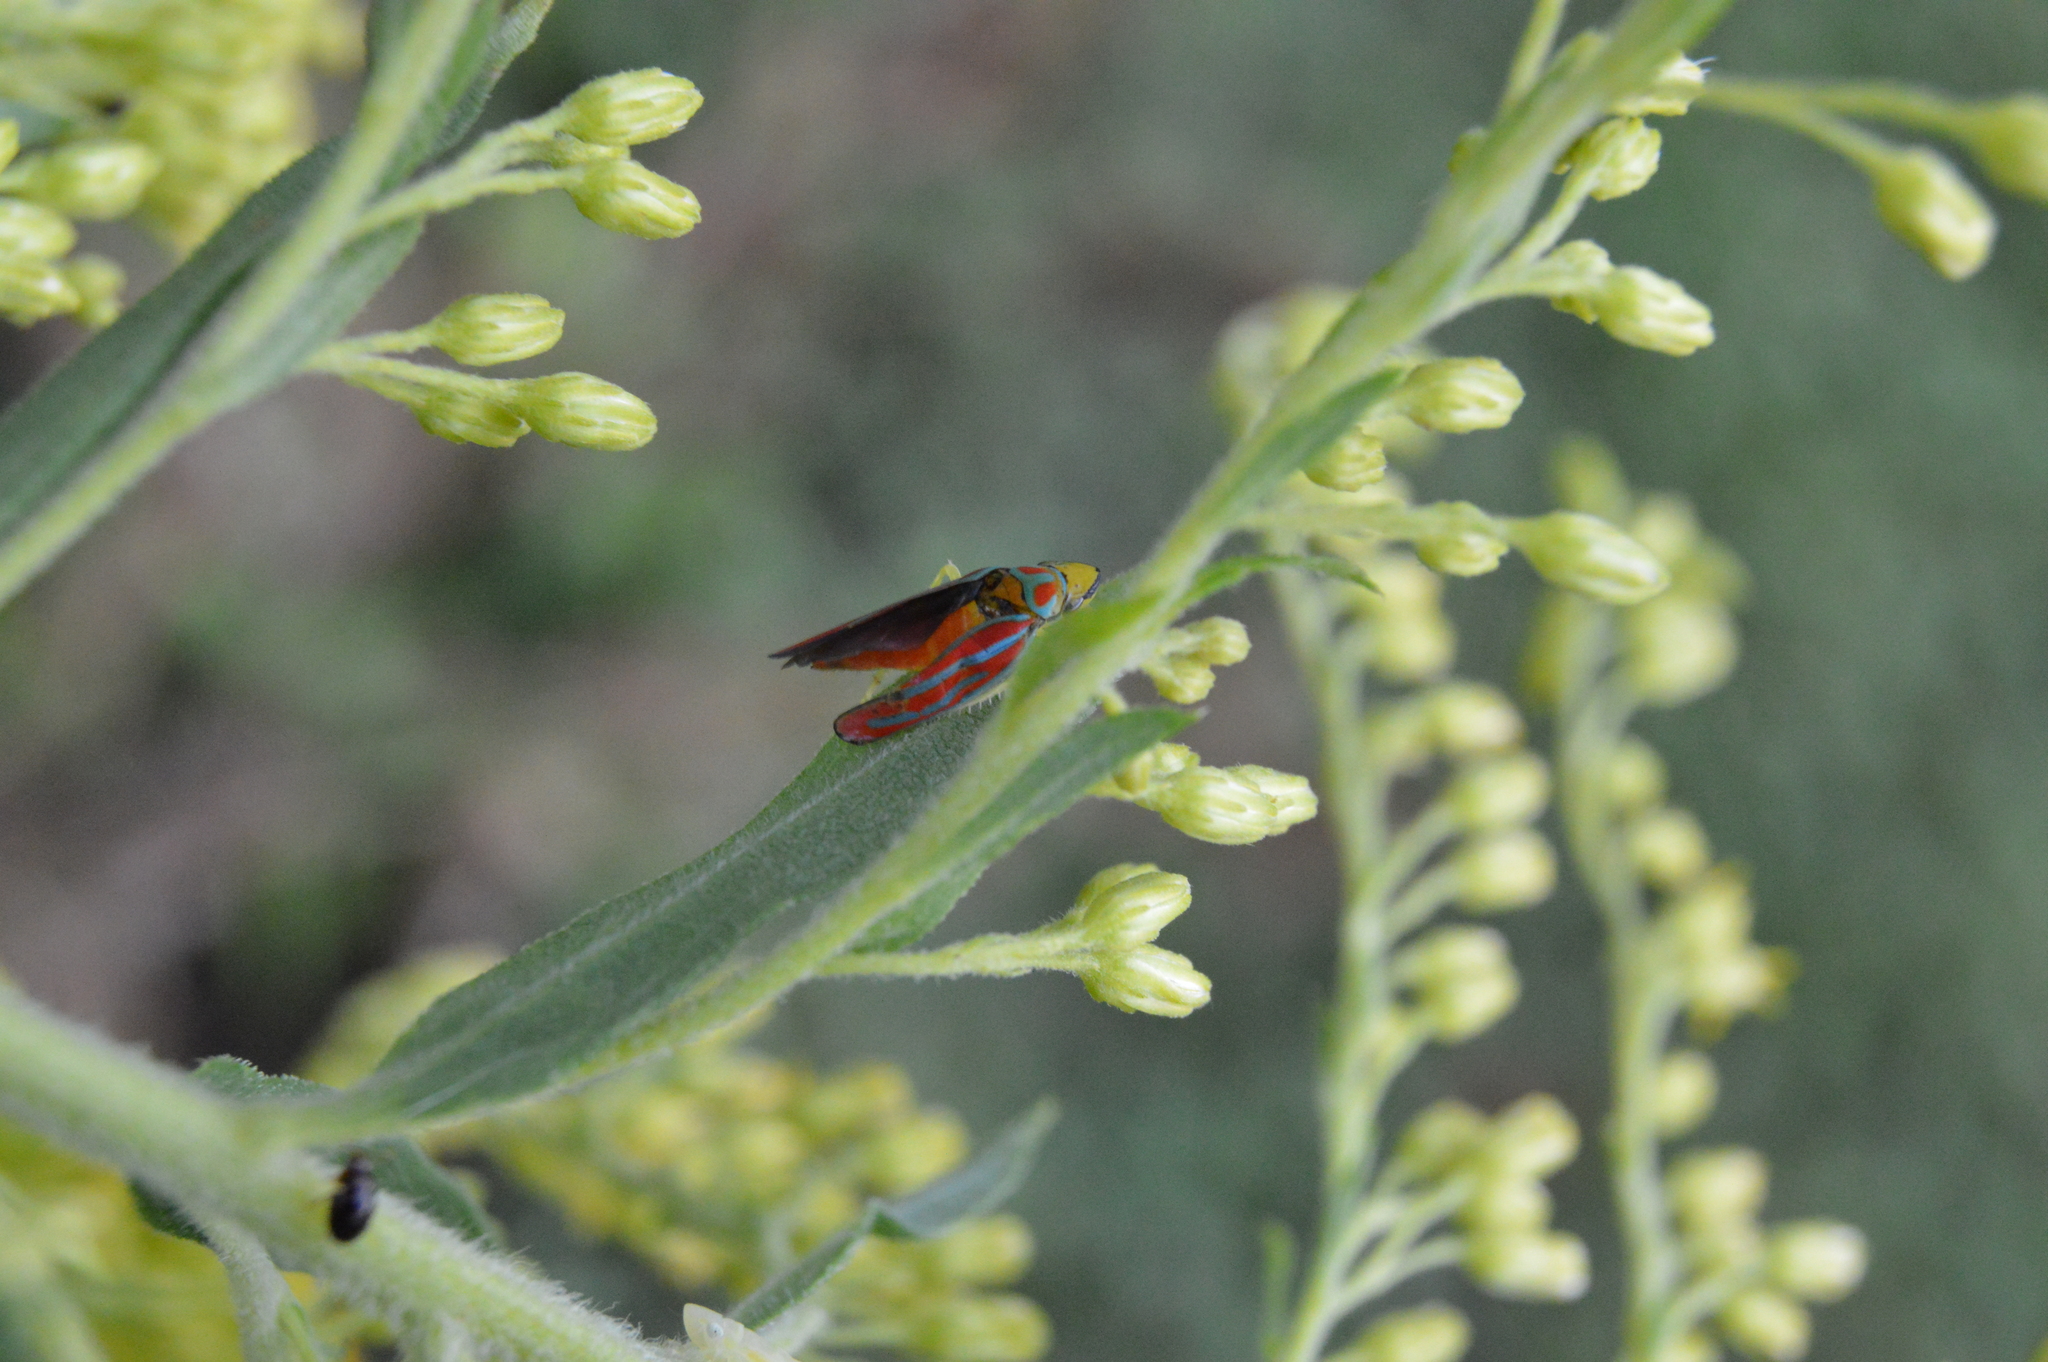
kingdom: Animalia
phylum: Arthropoda
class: Insecta
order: Hemiptera
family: Cicadellidae
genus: Graphocephala
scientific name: Graphocephala coccinea
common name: Candy-striped leafhopper
